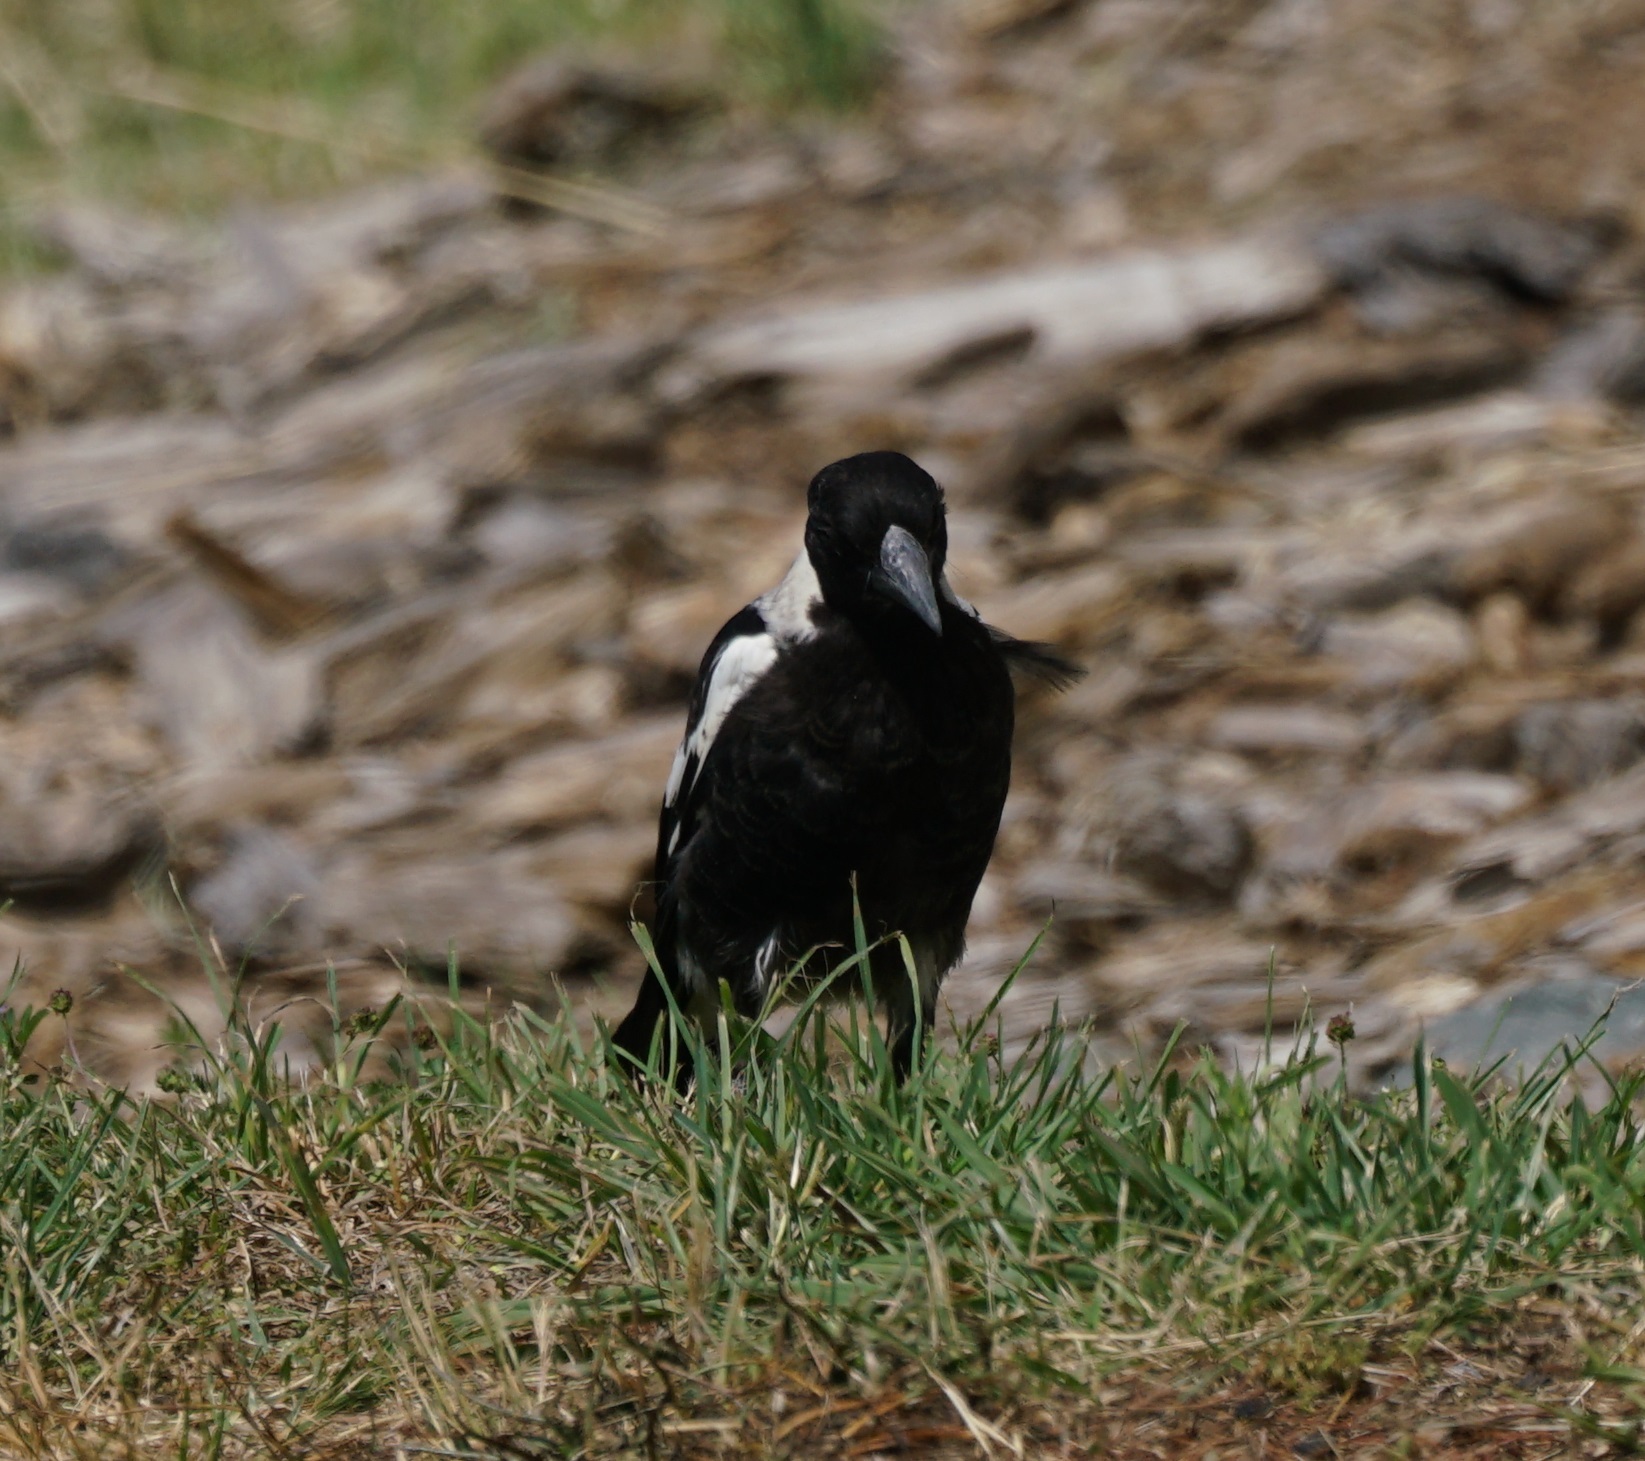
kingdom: Animalia
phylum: Chordata
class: Aves
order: Passeriformes
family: Cracticidae
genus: Gymnorhina
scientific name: Gymnorhina tibicen
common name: Australian magpie
